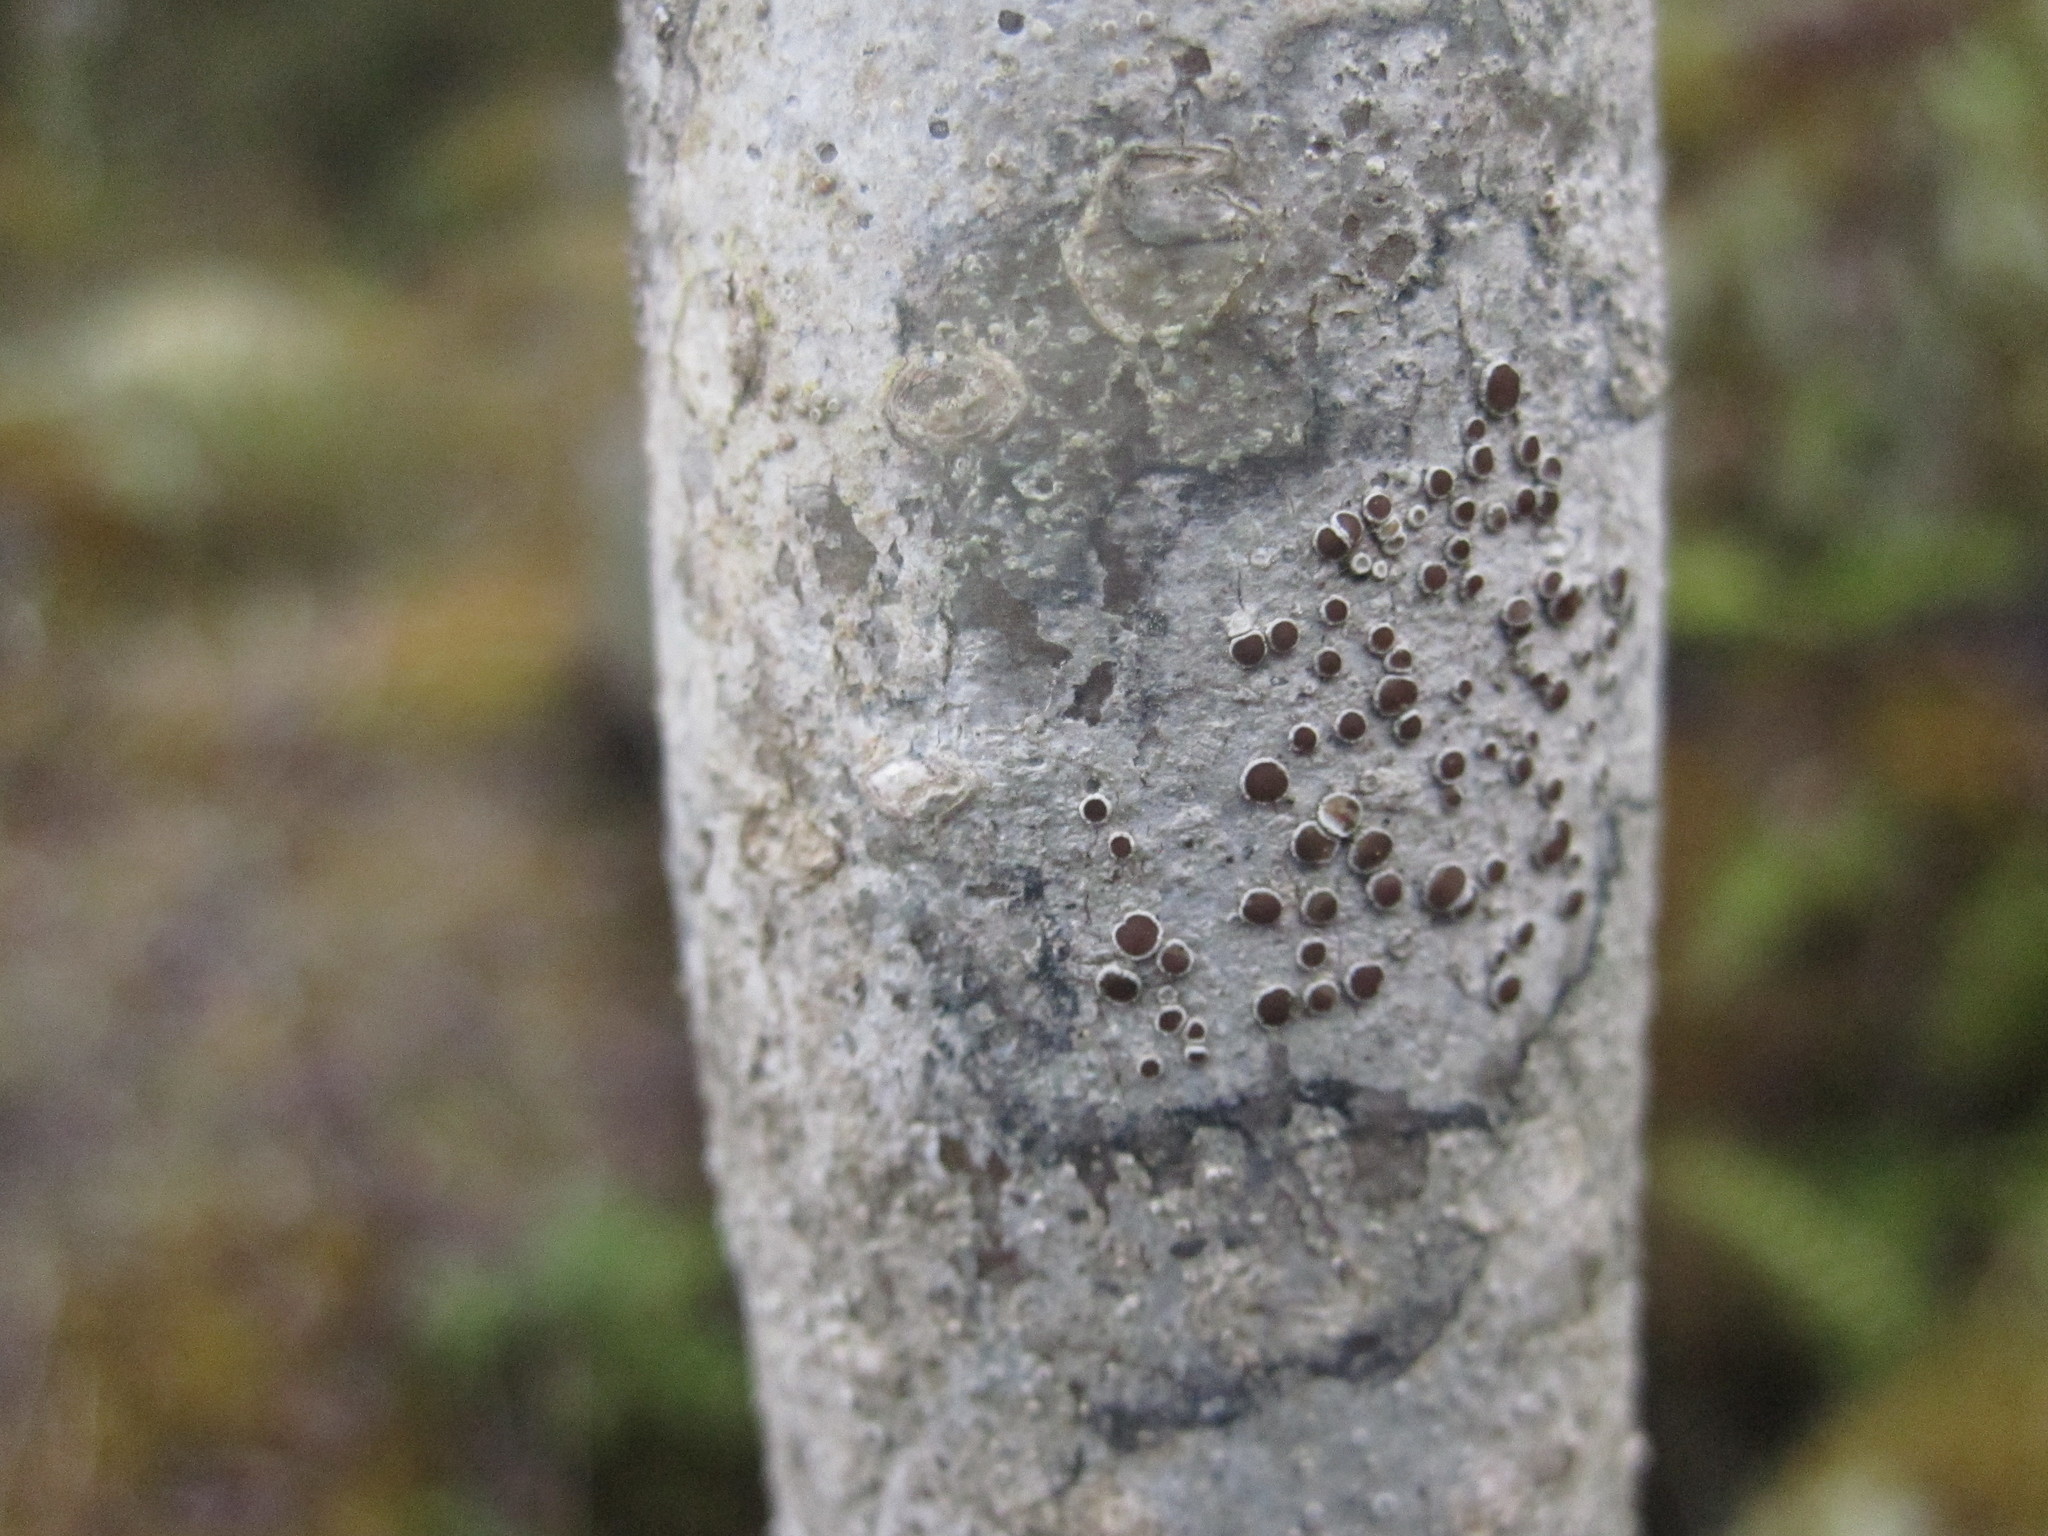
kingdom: Fungi
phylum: Ascomycota
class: Lecanoromycetes
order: Lecanorales
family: Lecanoraceae
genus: Lecanora
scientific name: Lecanora argentata
